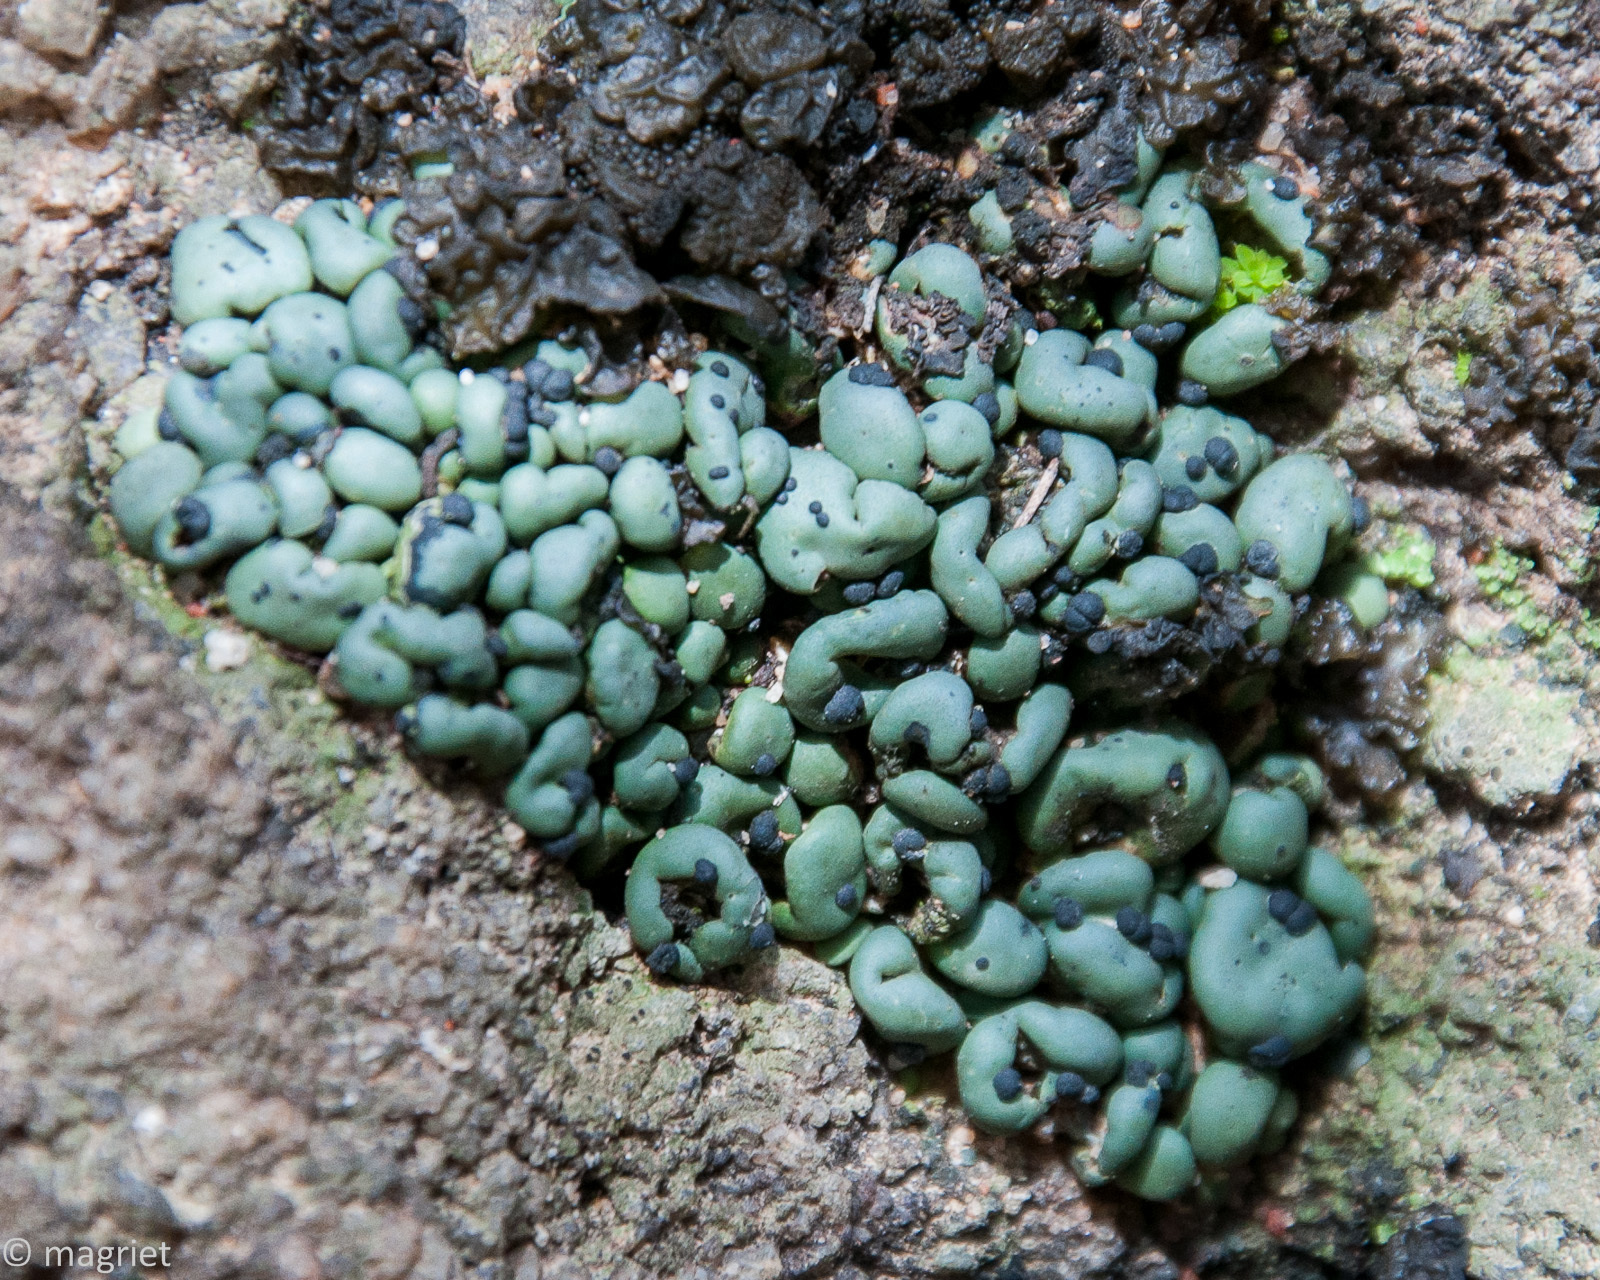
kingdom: Fungi
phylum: Ascomycota
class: Lecanoromycetes
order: Lecanorales
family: Ramalinaceae
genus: Rolfidium
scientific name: Rolfidium bumammum
